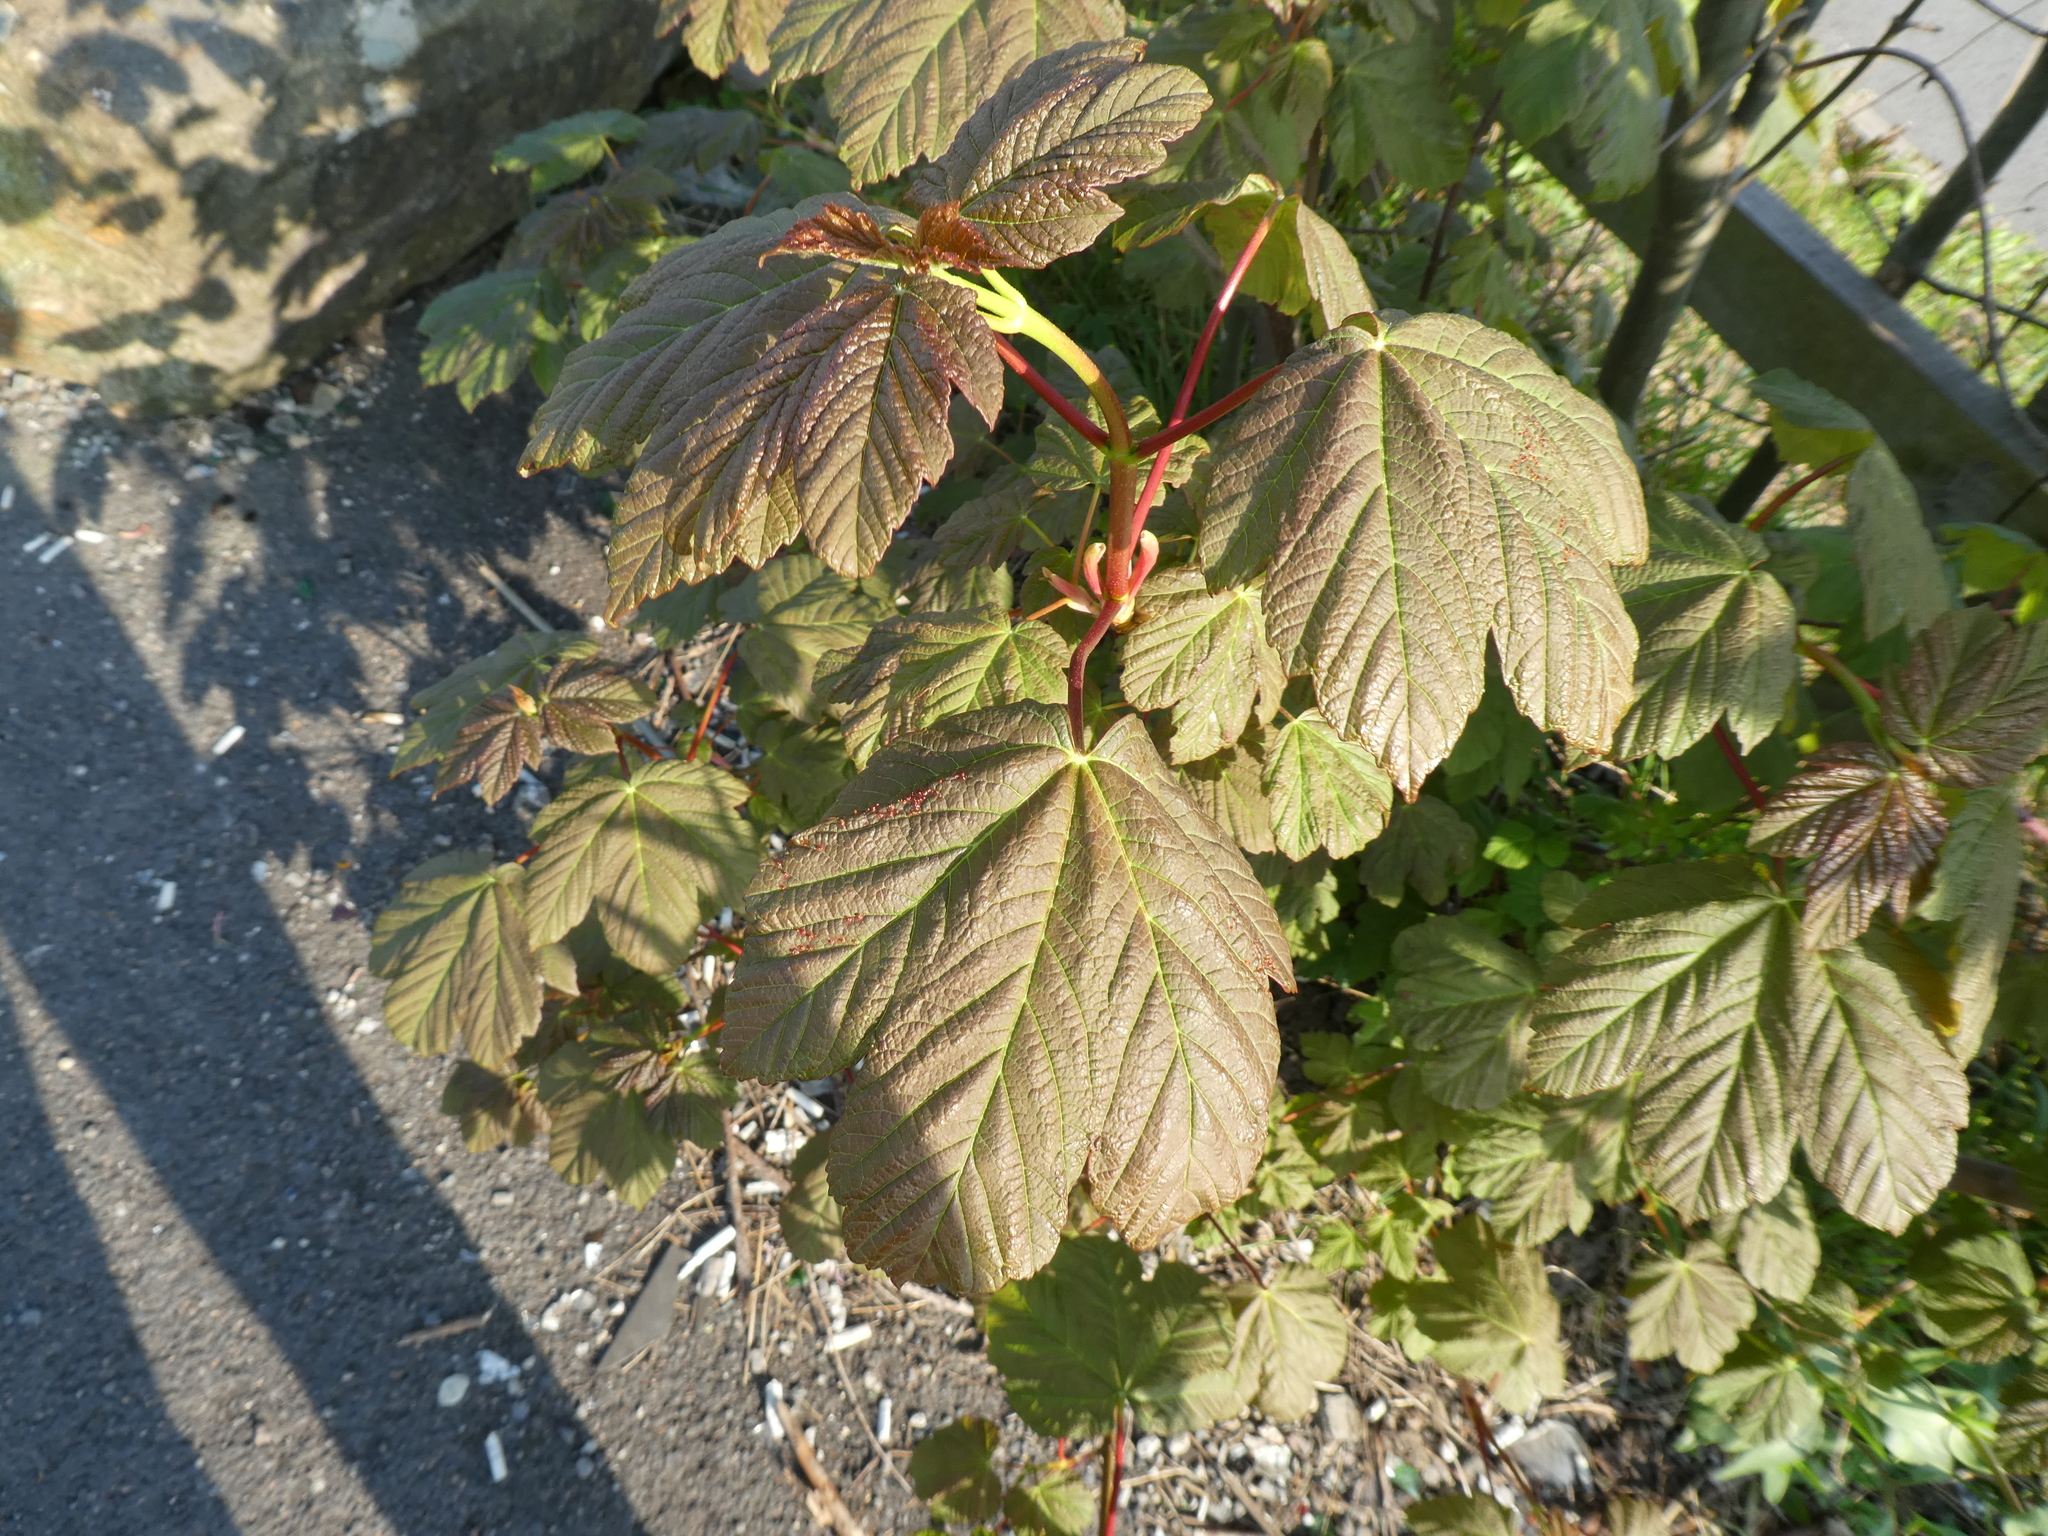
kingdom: Plantae
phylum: Tracheophyta
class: Magnoliopsida
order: Sapindales
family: Sapindaceae
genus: Acer
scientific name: Acer pseudoplatanus
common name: Sycamore
